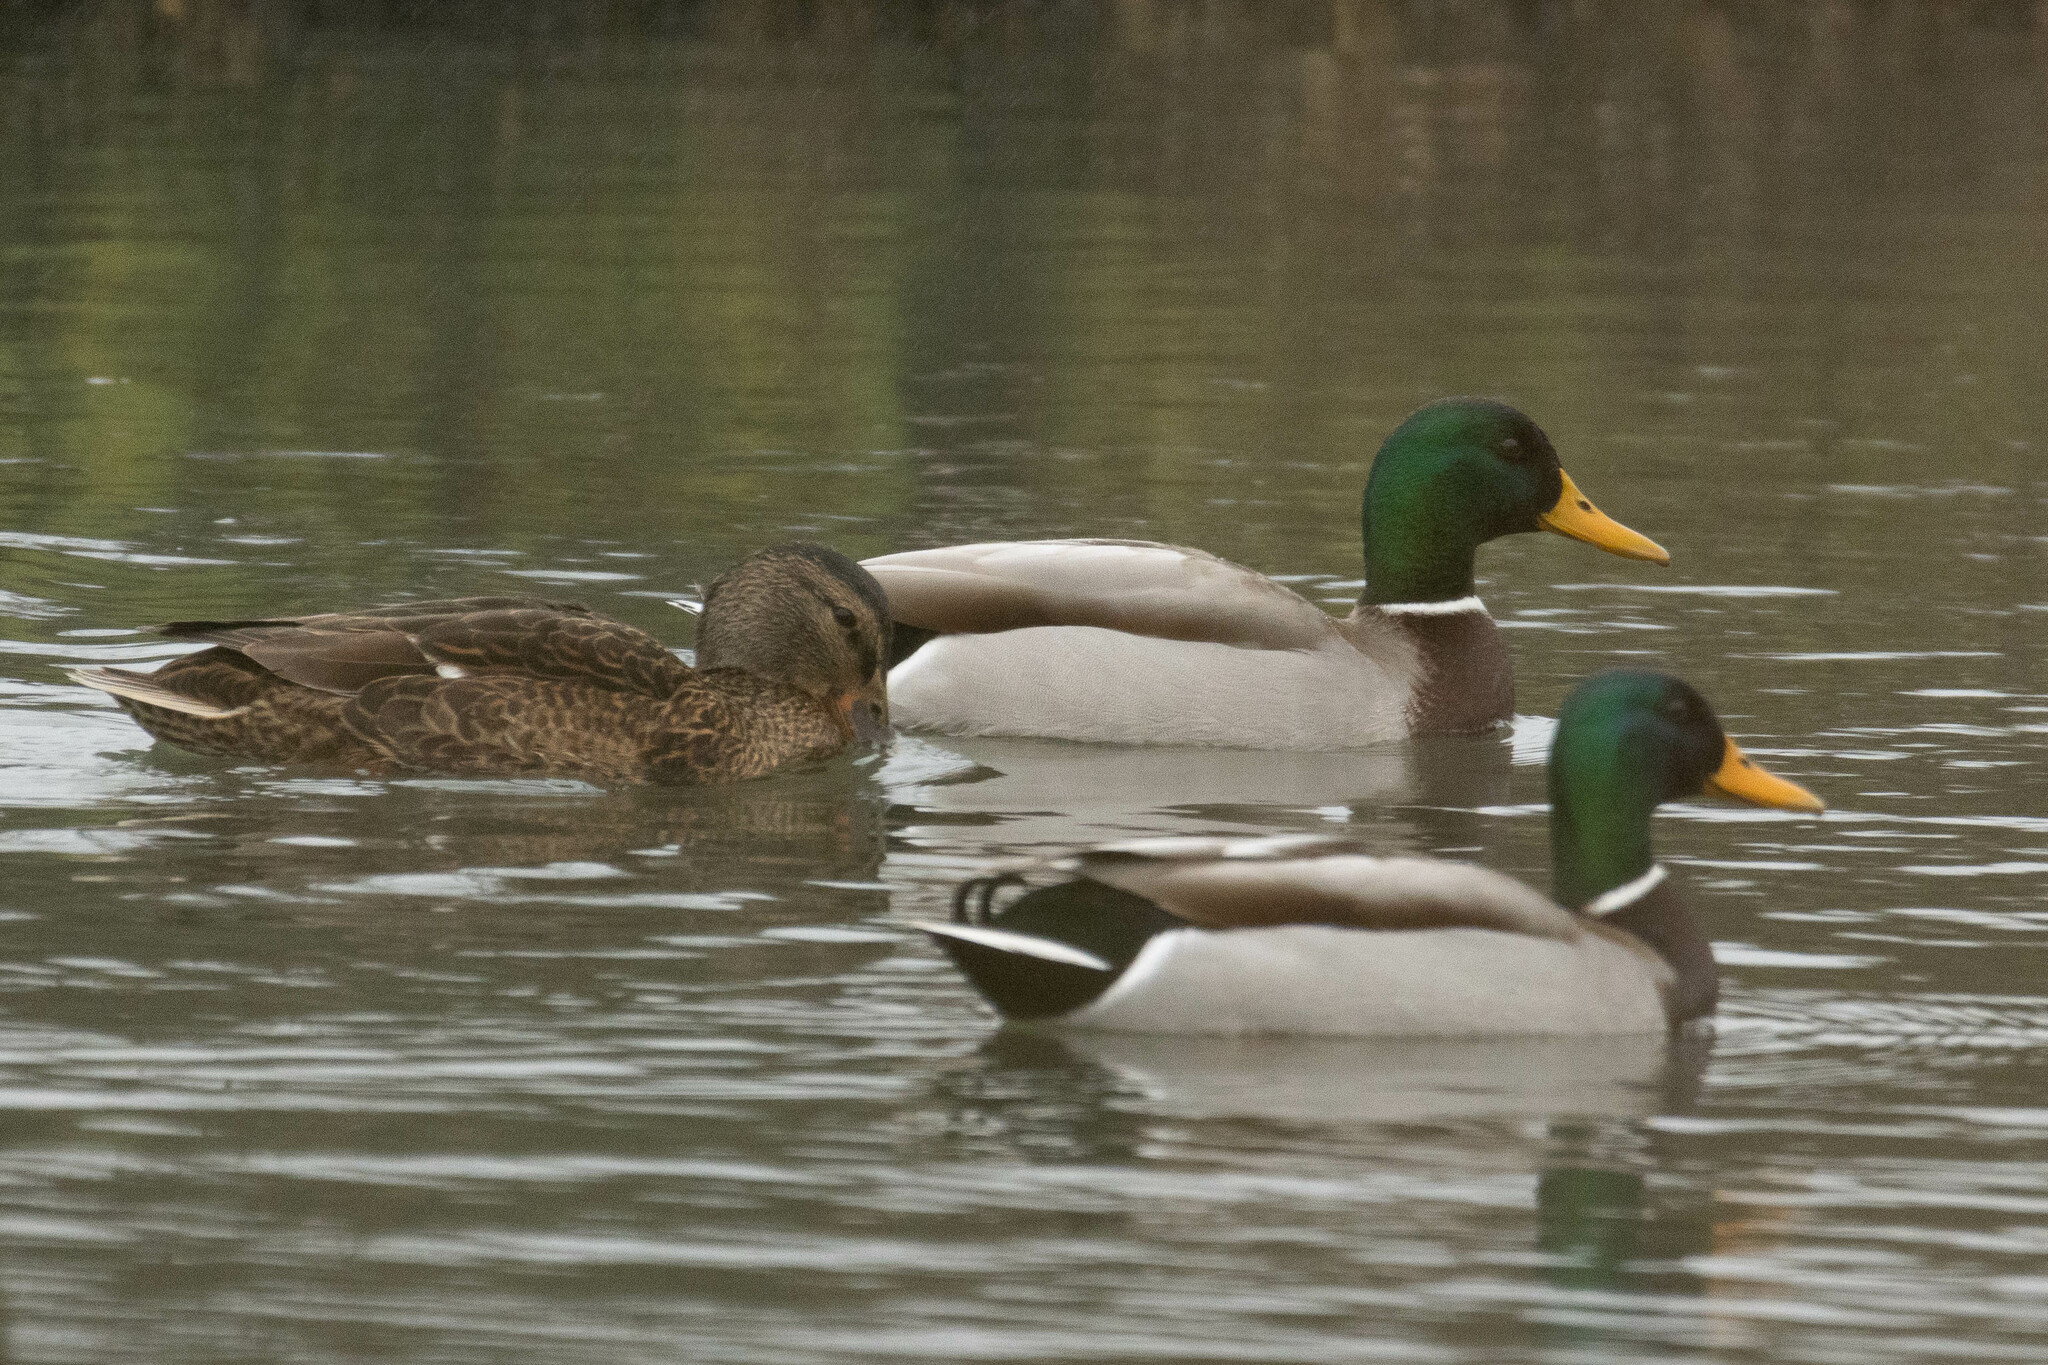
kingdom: Animalia
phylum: Chordata
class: Aves
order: Anseriformes
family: Anatidae
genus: Anas
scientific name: Anas platyrhynchos
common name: Mallard
